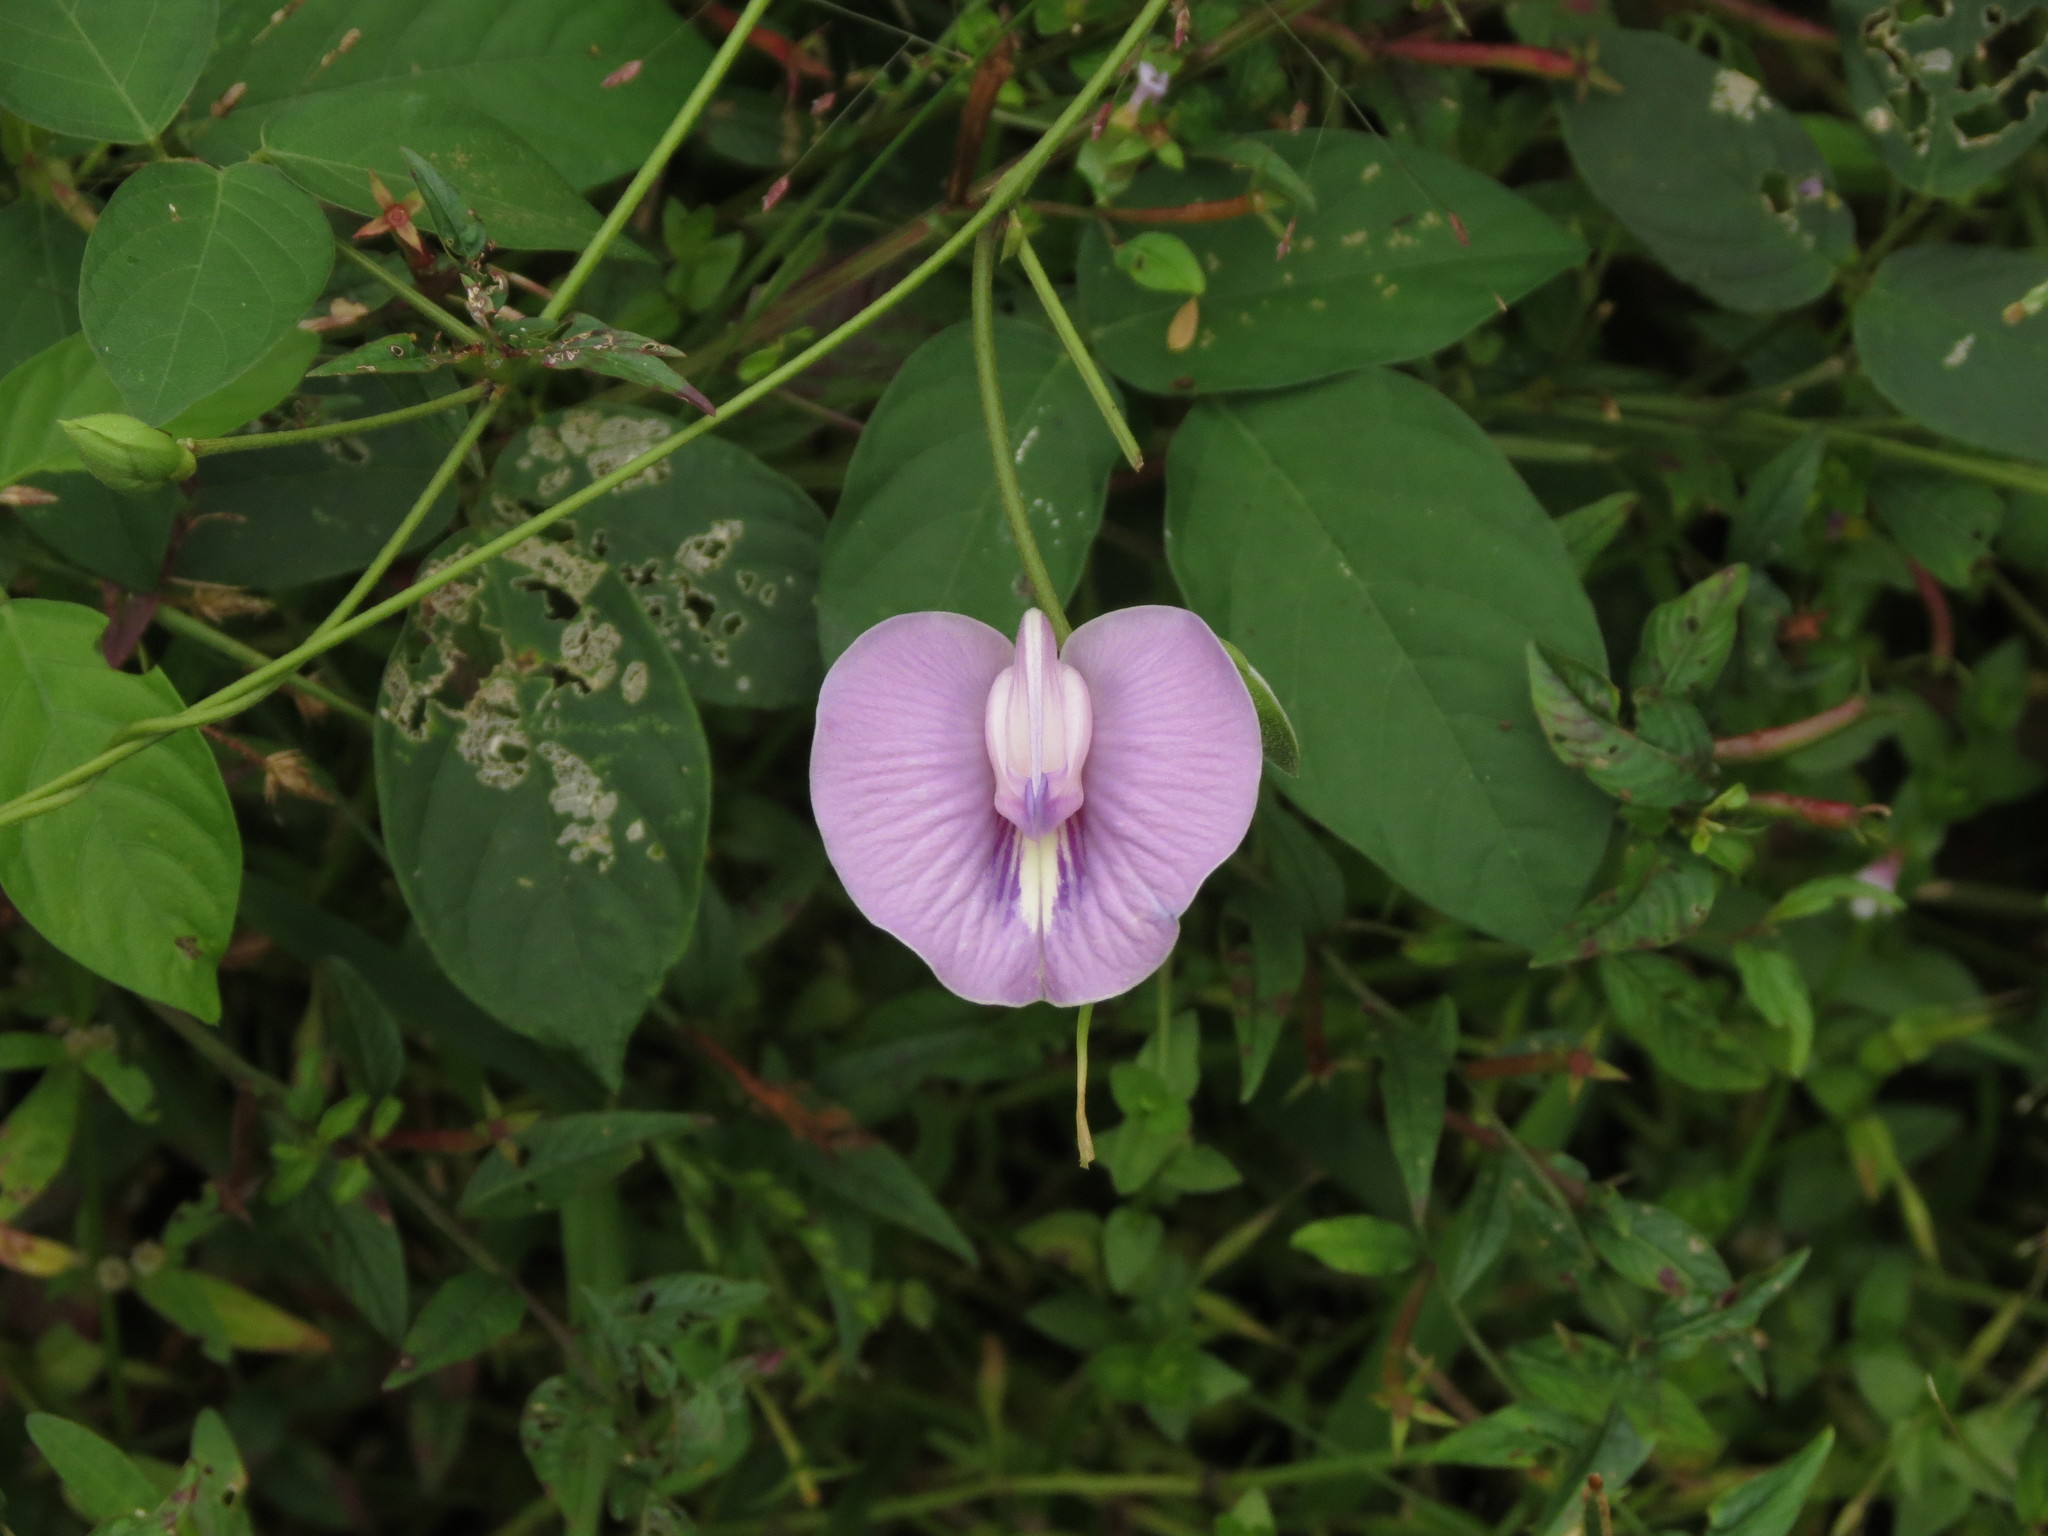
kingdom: Plantae
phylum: Tracheophyta
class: Magnoliopsida
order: Fabales
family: Fabaceae
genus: Centrosema
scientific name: Centrosema pubescens
